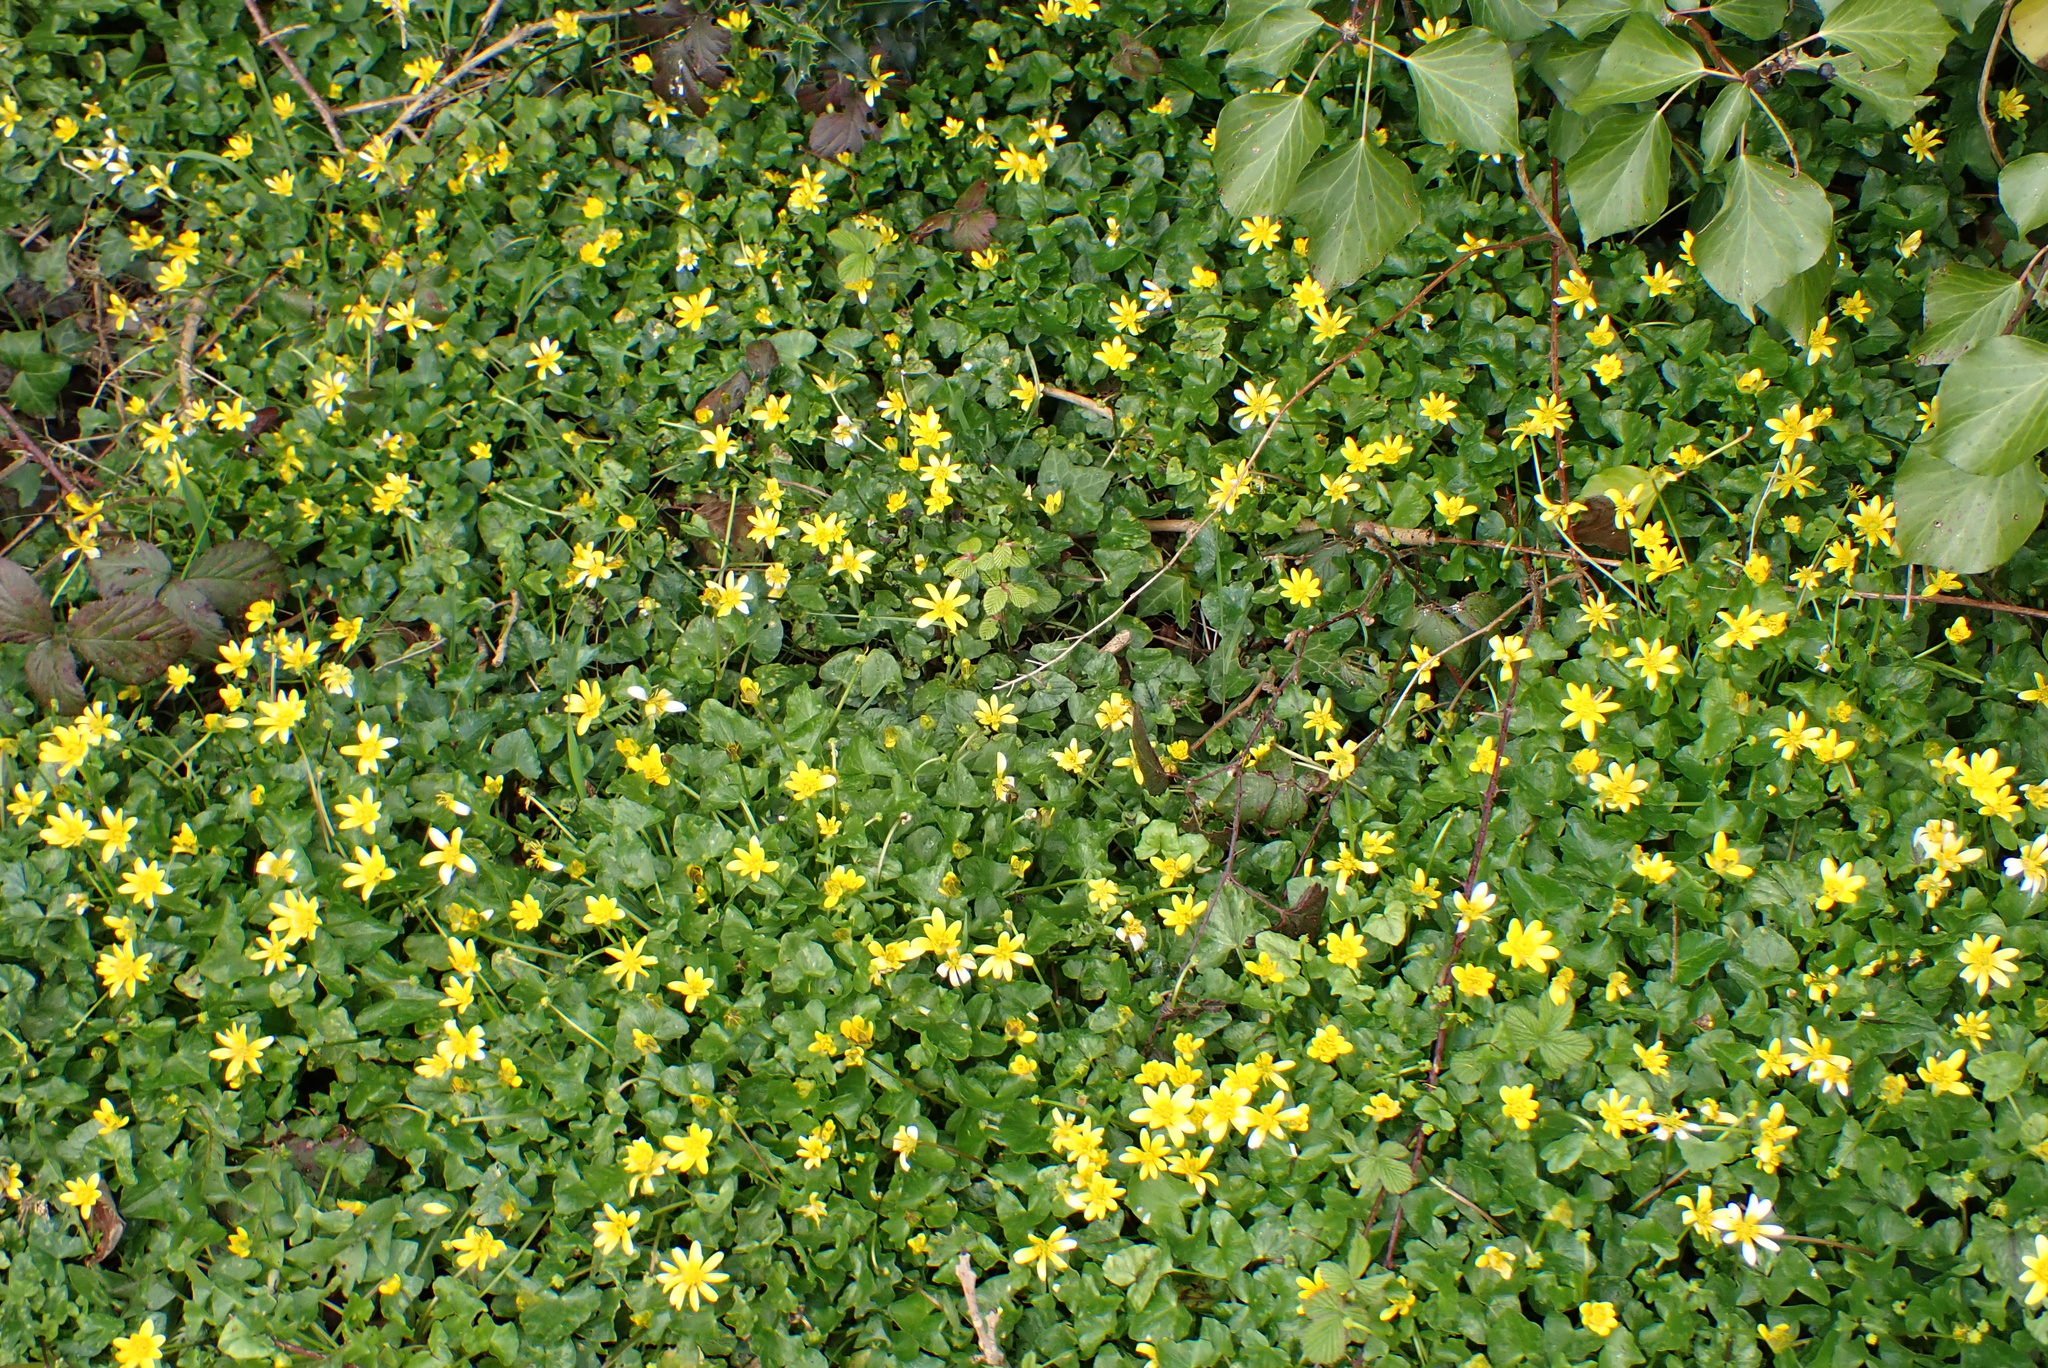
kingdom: Plantae
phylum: Tracheophyta
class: Magnoliopsida
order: Ranunculales
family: Ranunculaceae
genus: Ficaria
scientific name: Ficaria verna
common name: Lesser celandine
